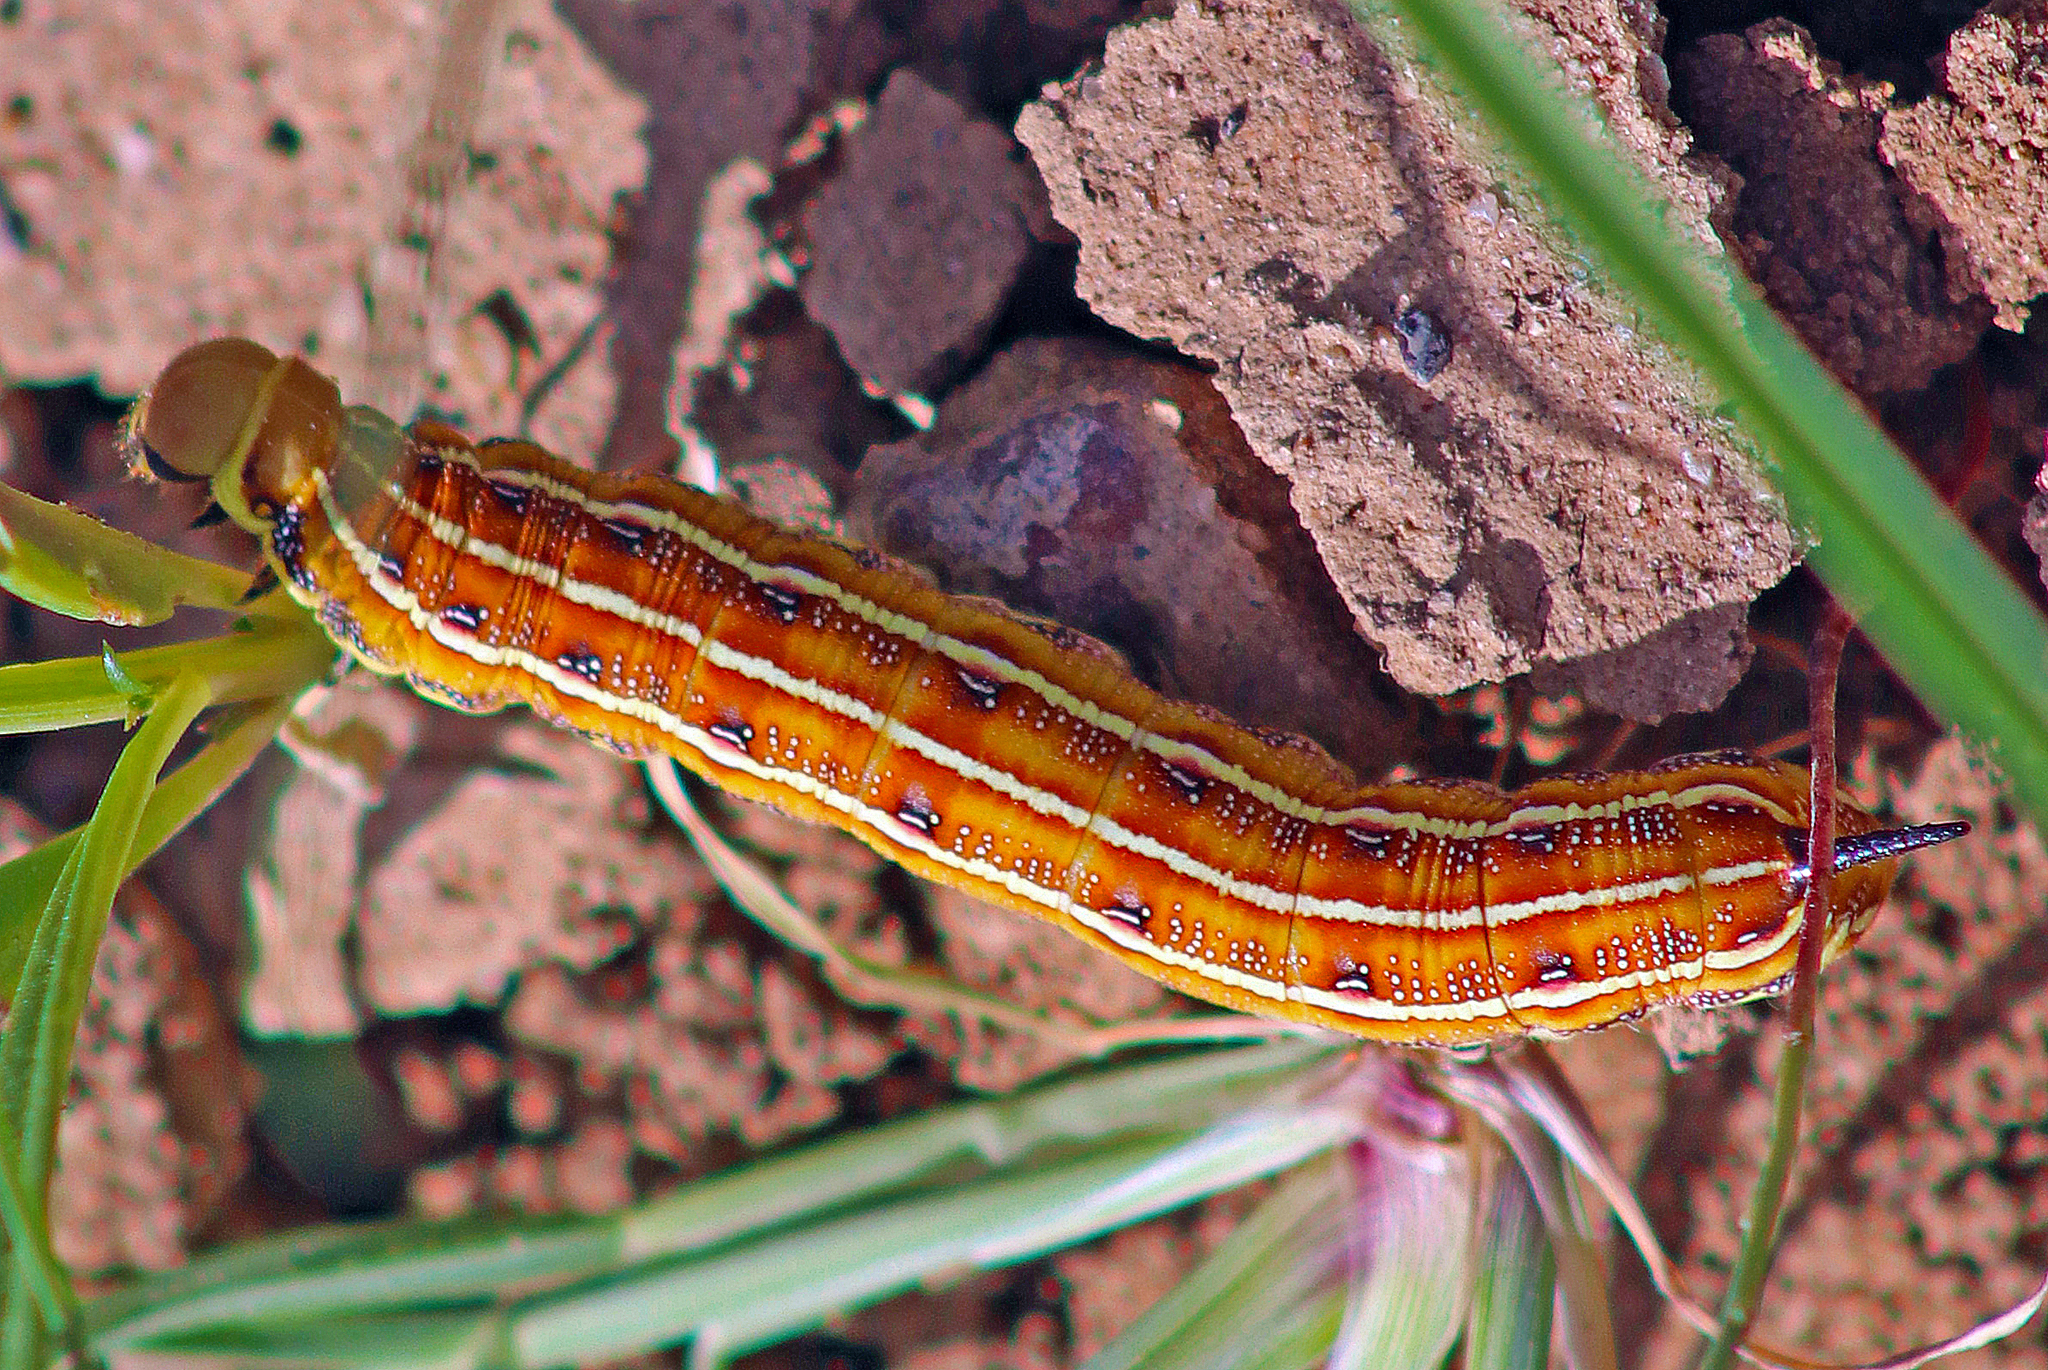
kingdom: Animalia
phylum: Arthropoda
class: Insecta
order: Lepidoptera
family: Sphingidae
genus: Hyles
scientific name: Hyles livornicoides
